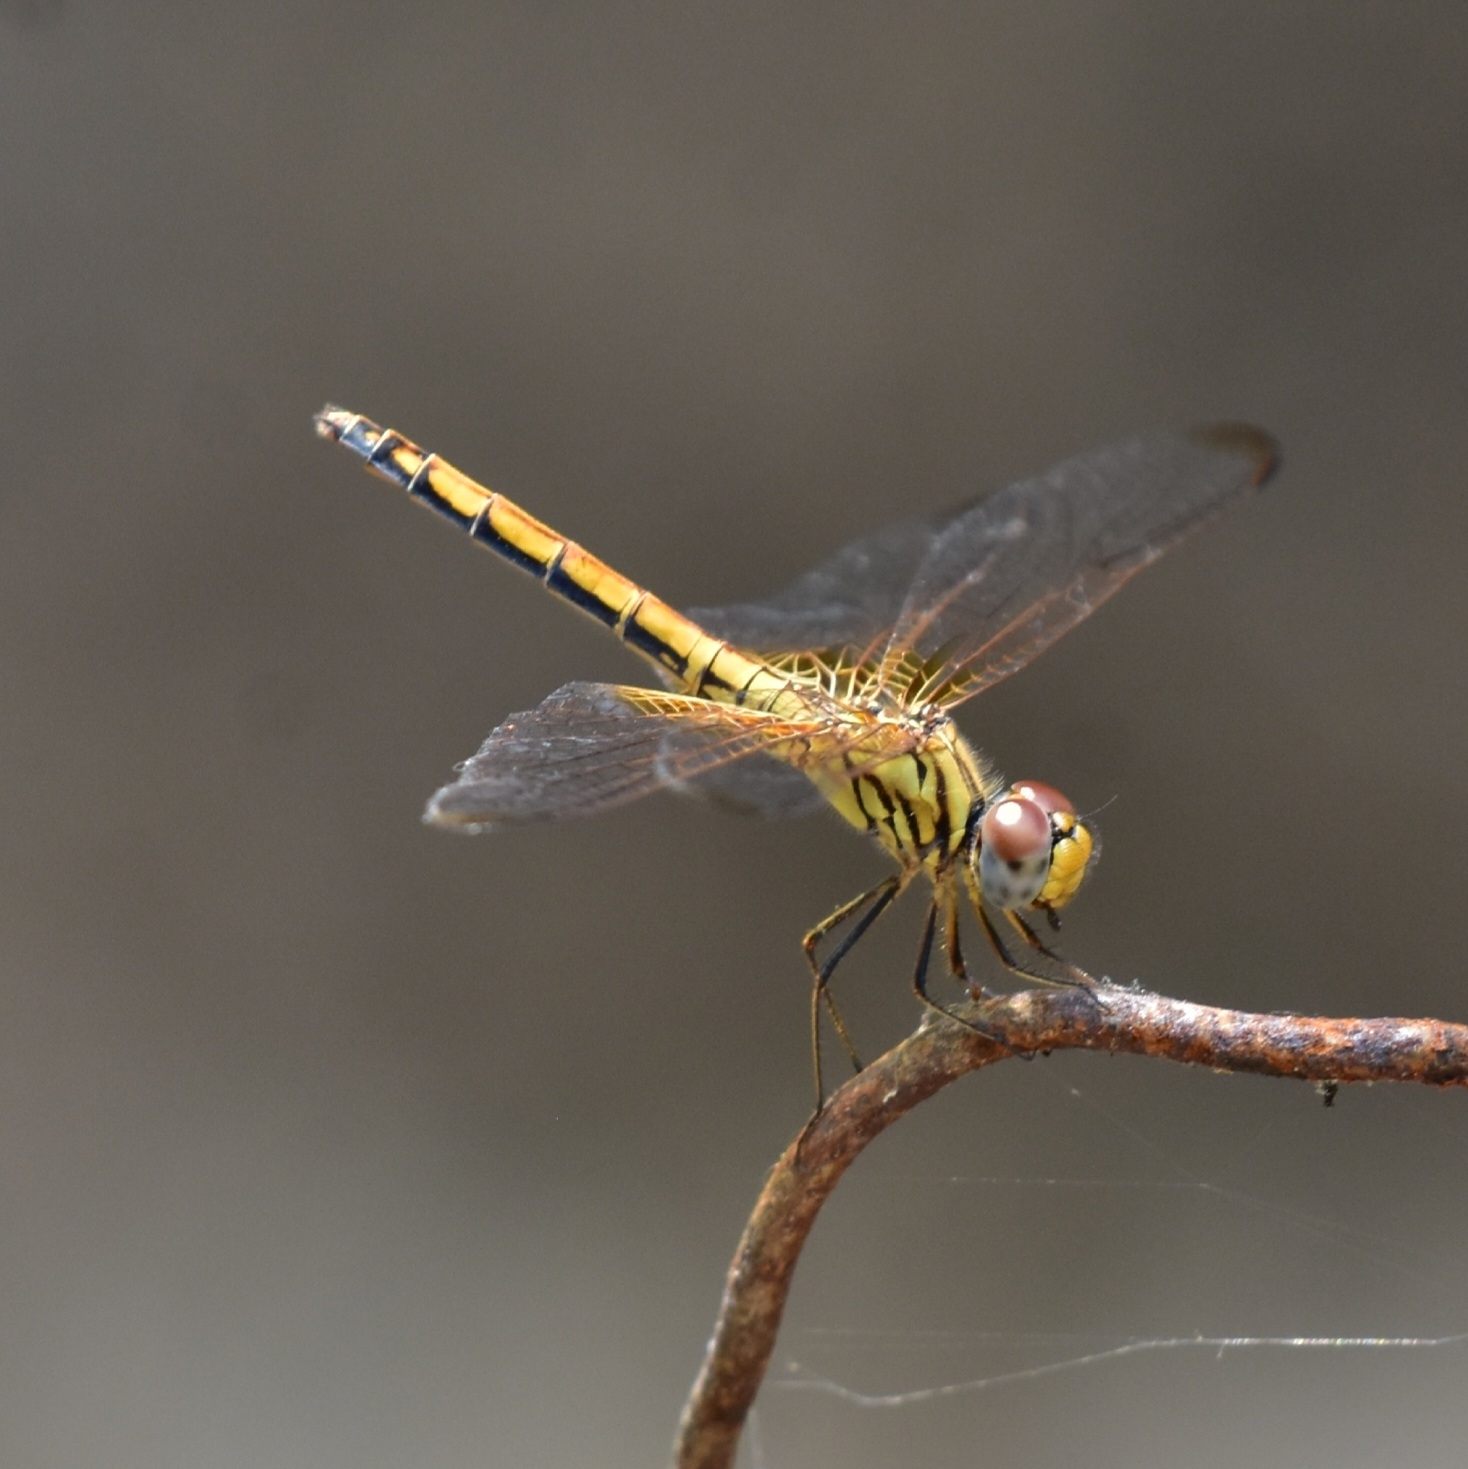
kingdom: Animalia
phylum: Arthropoda
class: Insecta
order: Odonata
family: Libellulidae
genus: Trithemis
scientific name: Trithemis aurora
